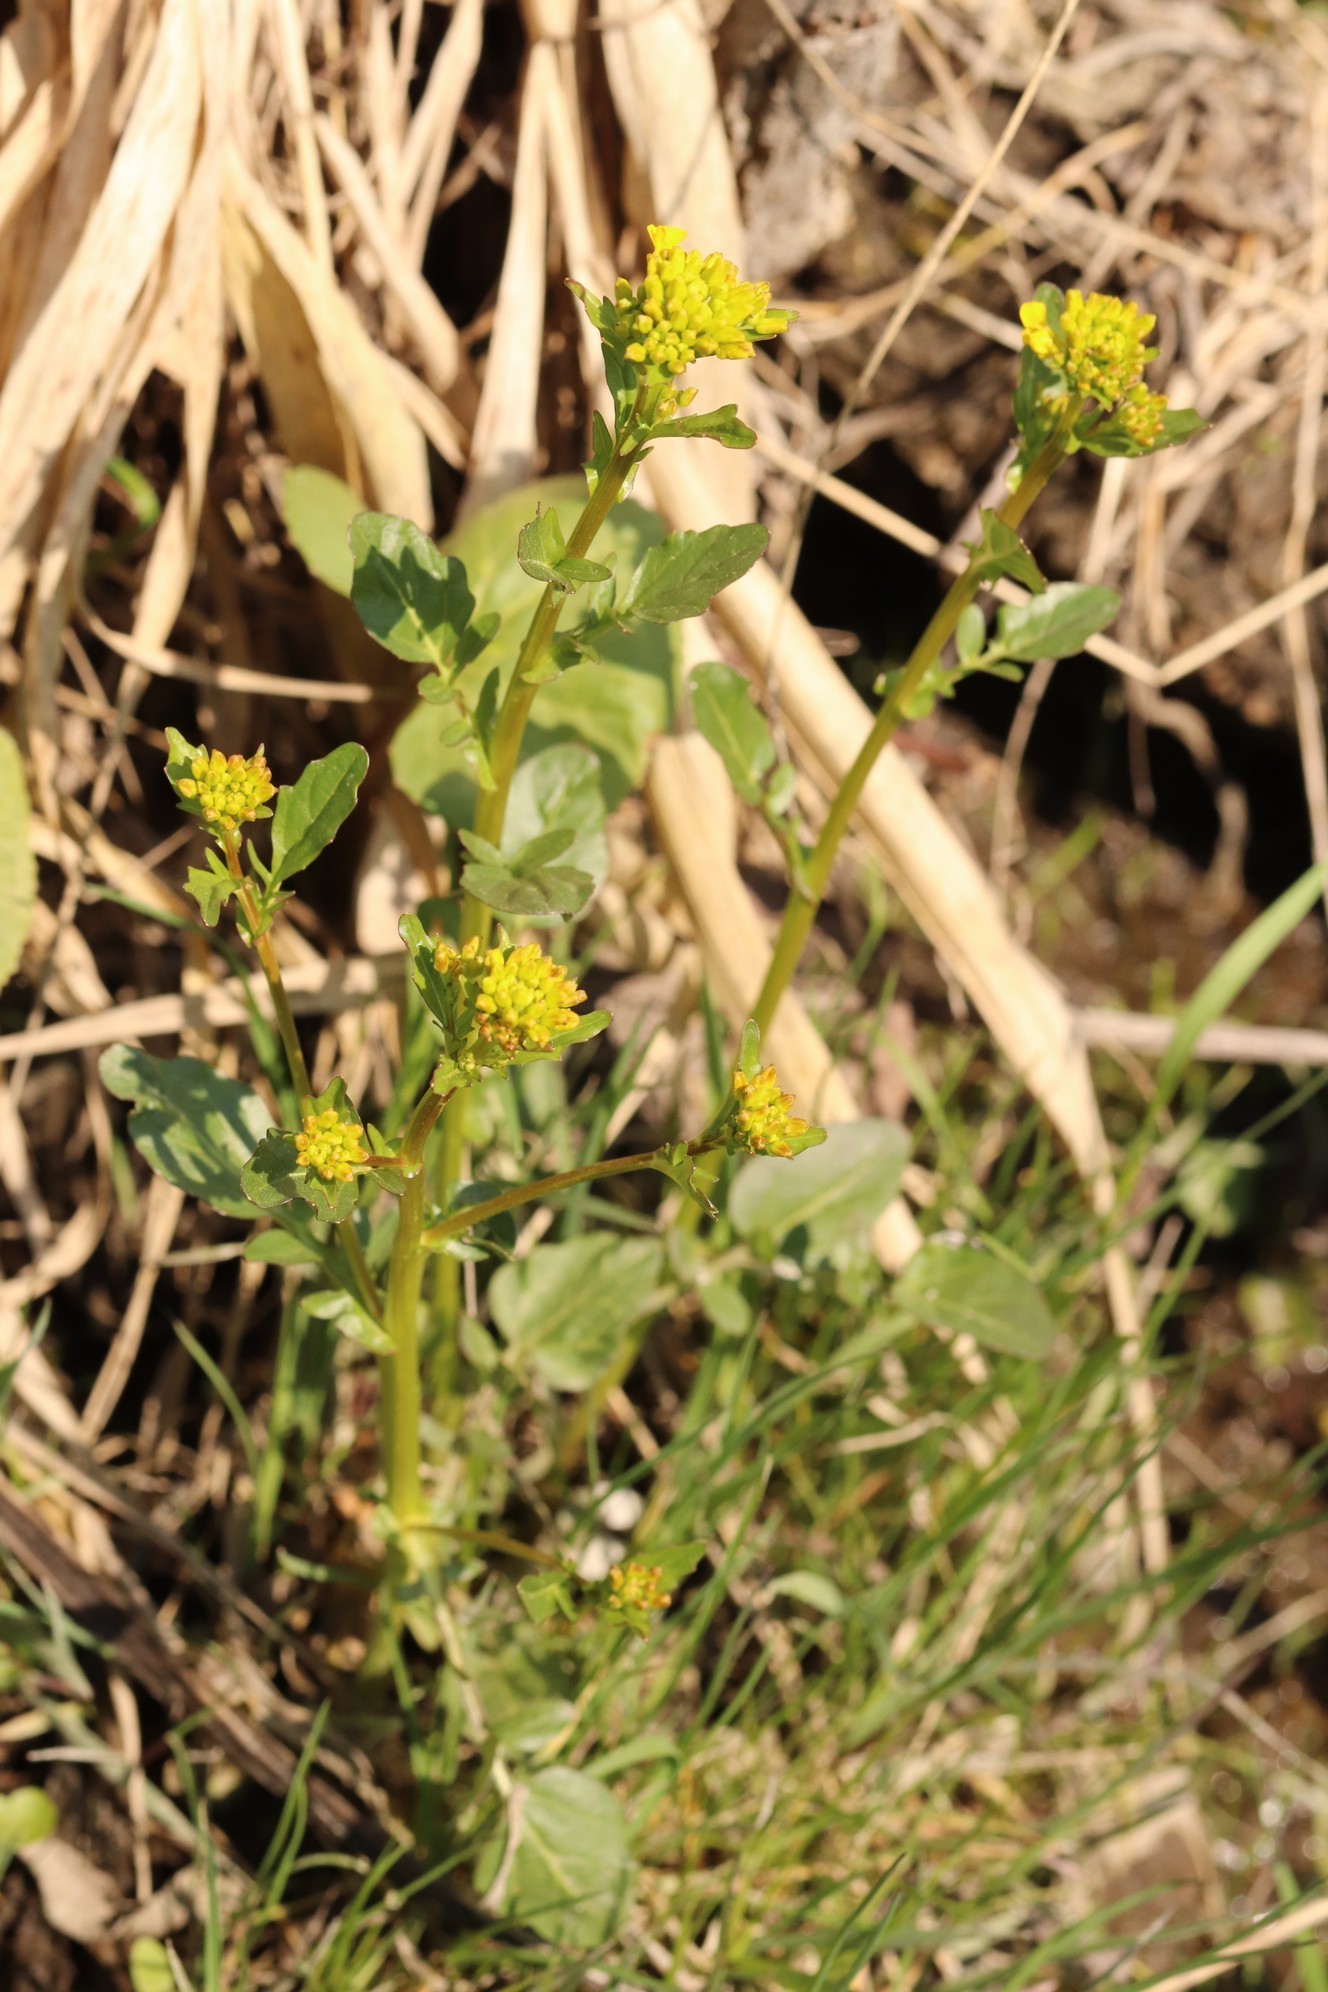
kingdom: Plantae
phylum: Tracheophyta
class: Magnoliopsida
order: Brassicales
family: Brassicaceae
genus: Barbarea
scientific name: Barbarea vulgaris
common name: Cressy-greens
